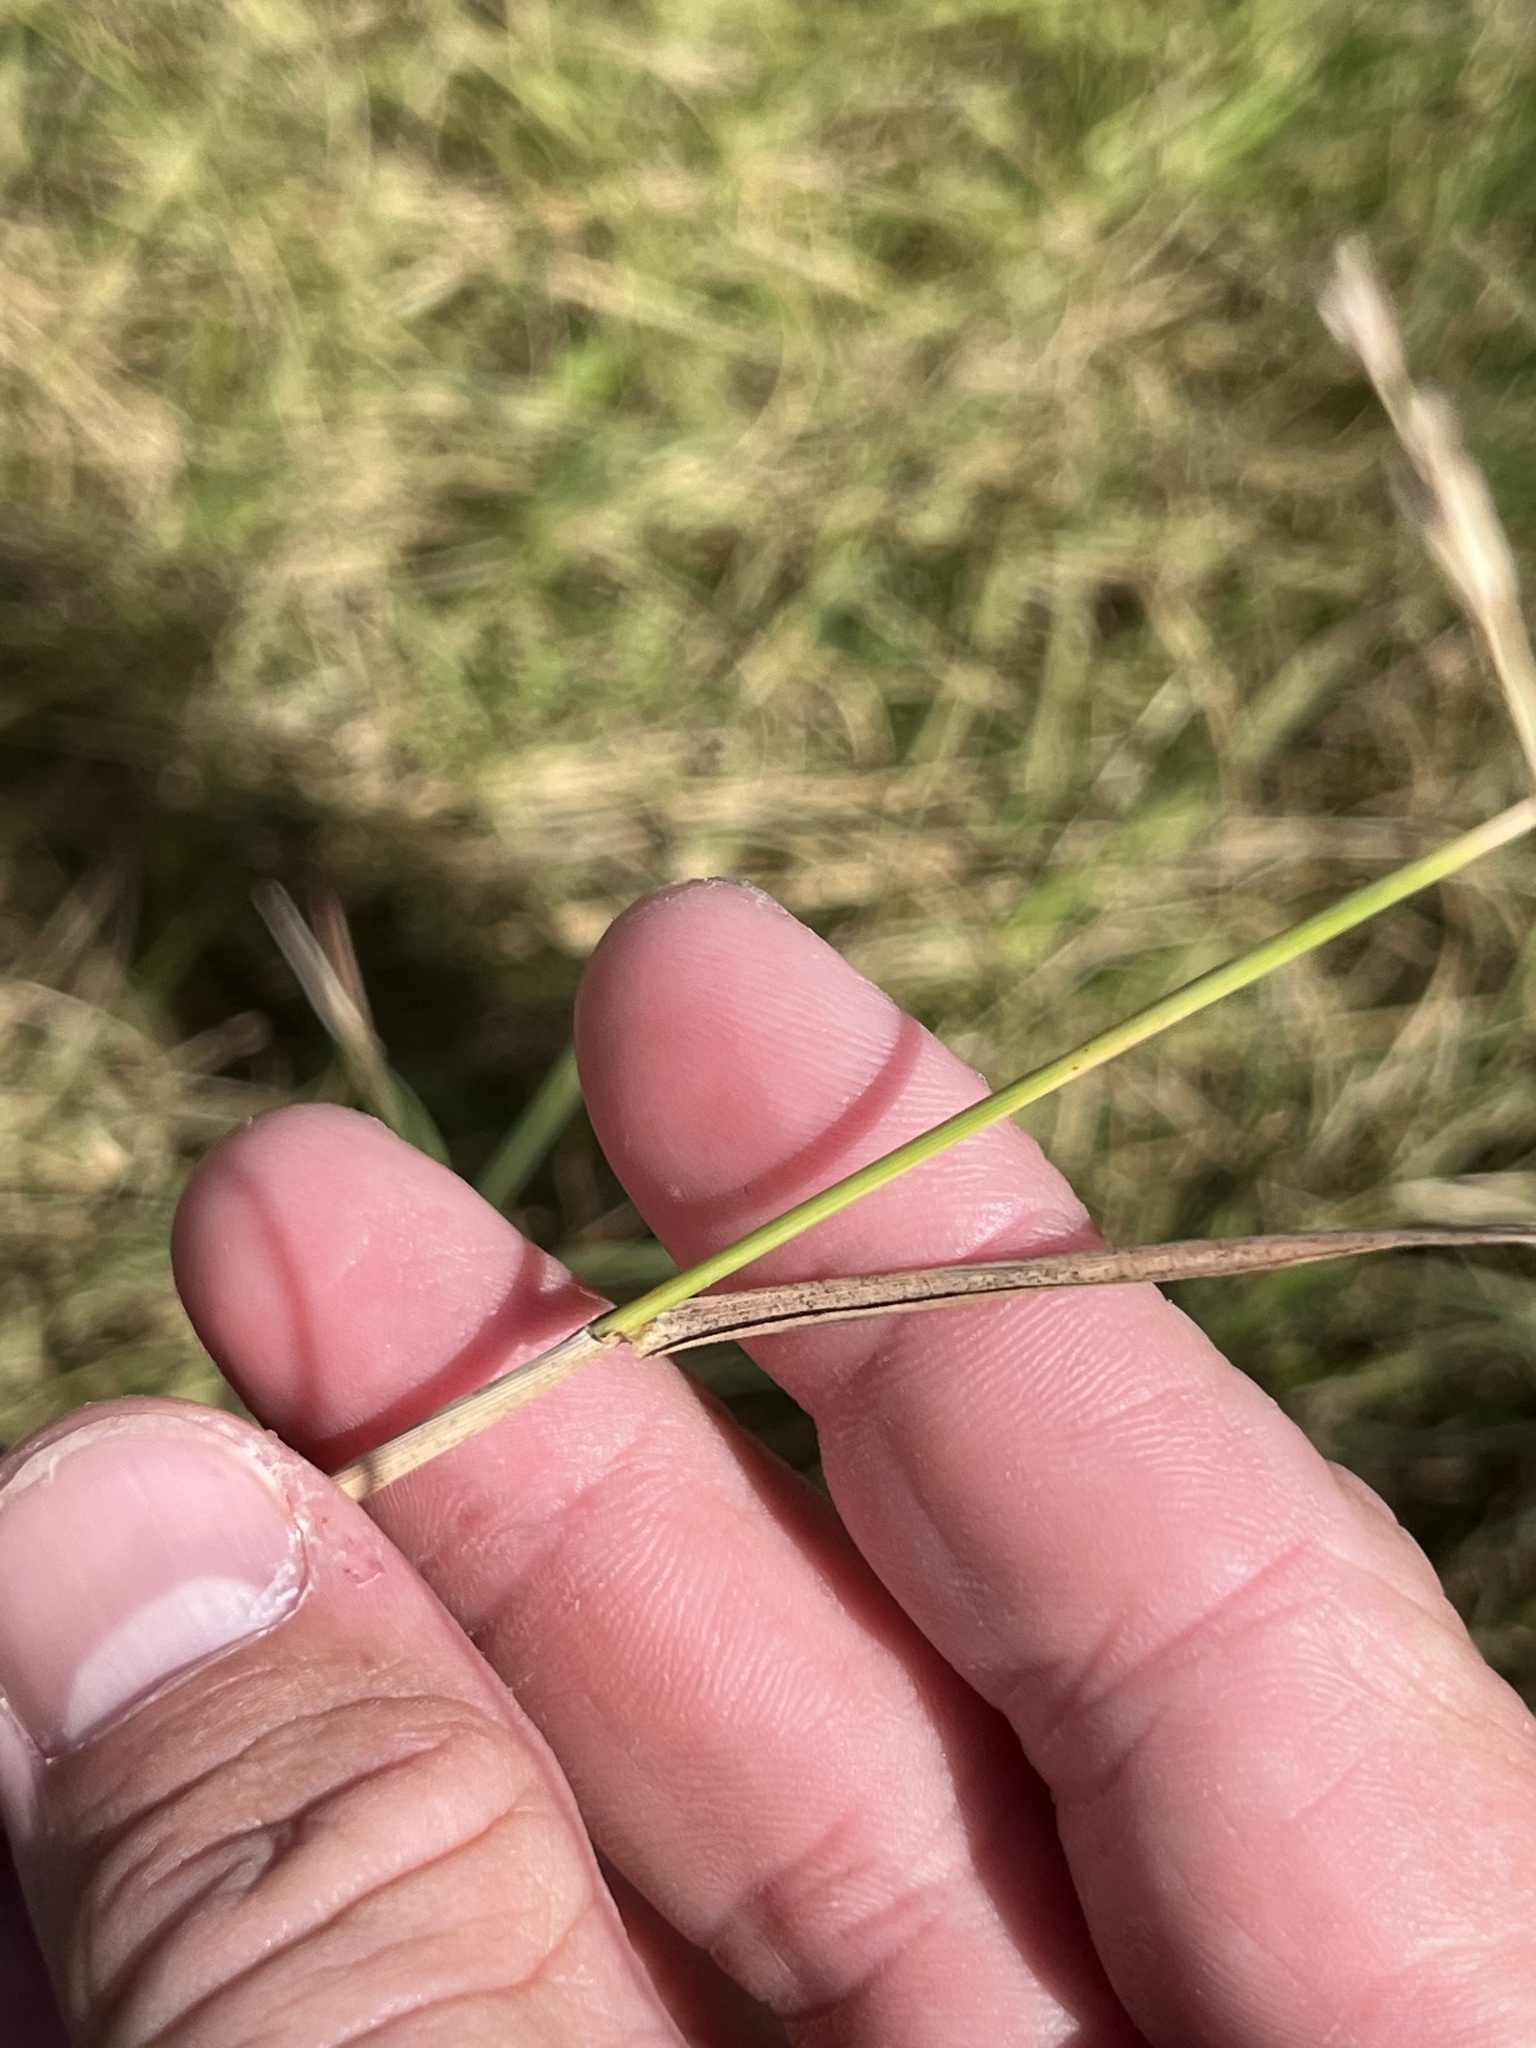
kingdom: Plantae
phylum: Tracheophyta
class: Liliopsida
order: Poales
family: Poaceae
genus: Bouteloua
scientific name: Bouteloua curtipendula
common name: Side-oats grama
